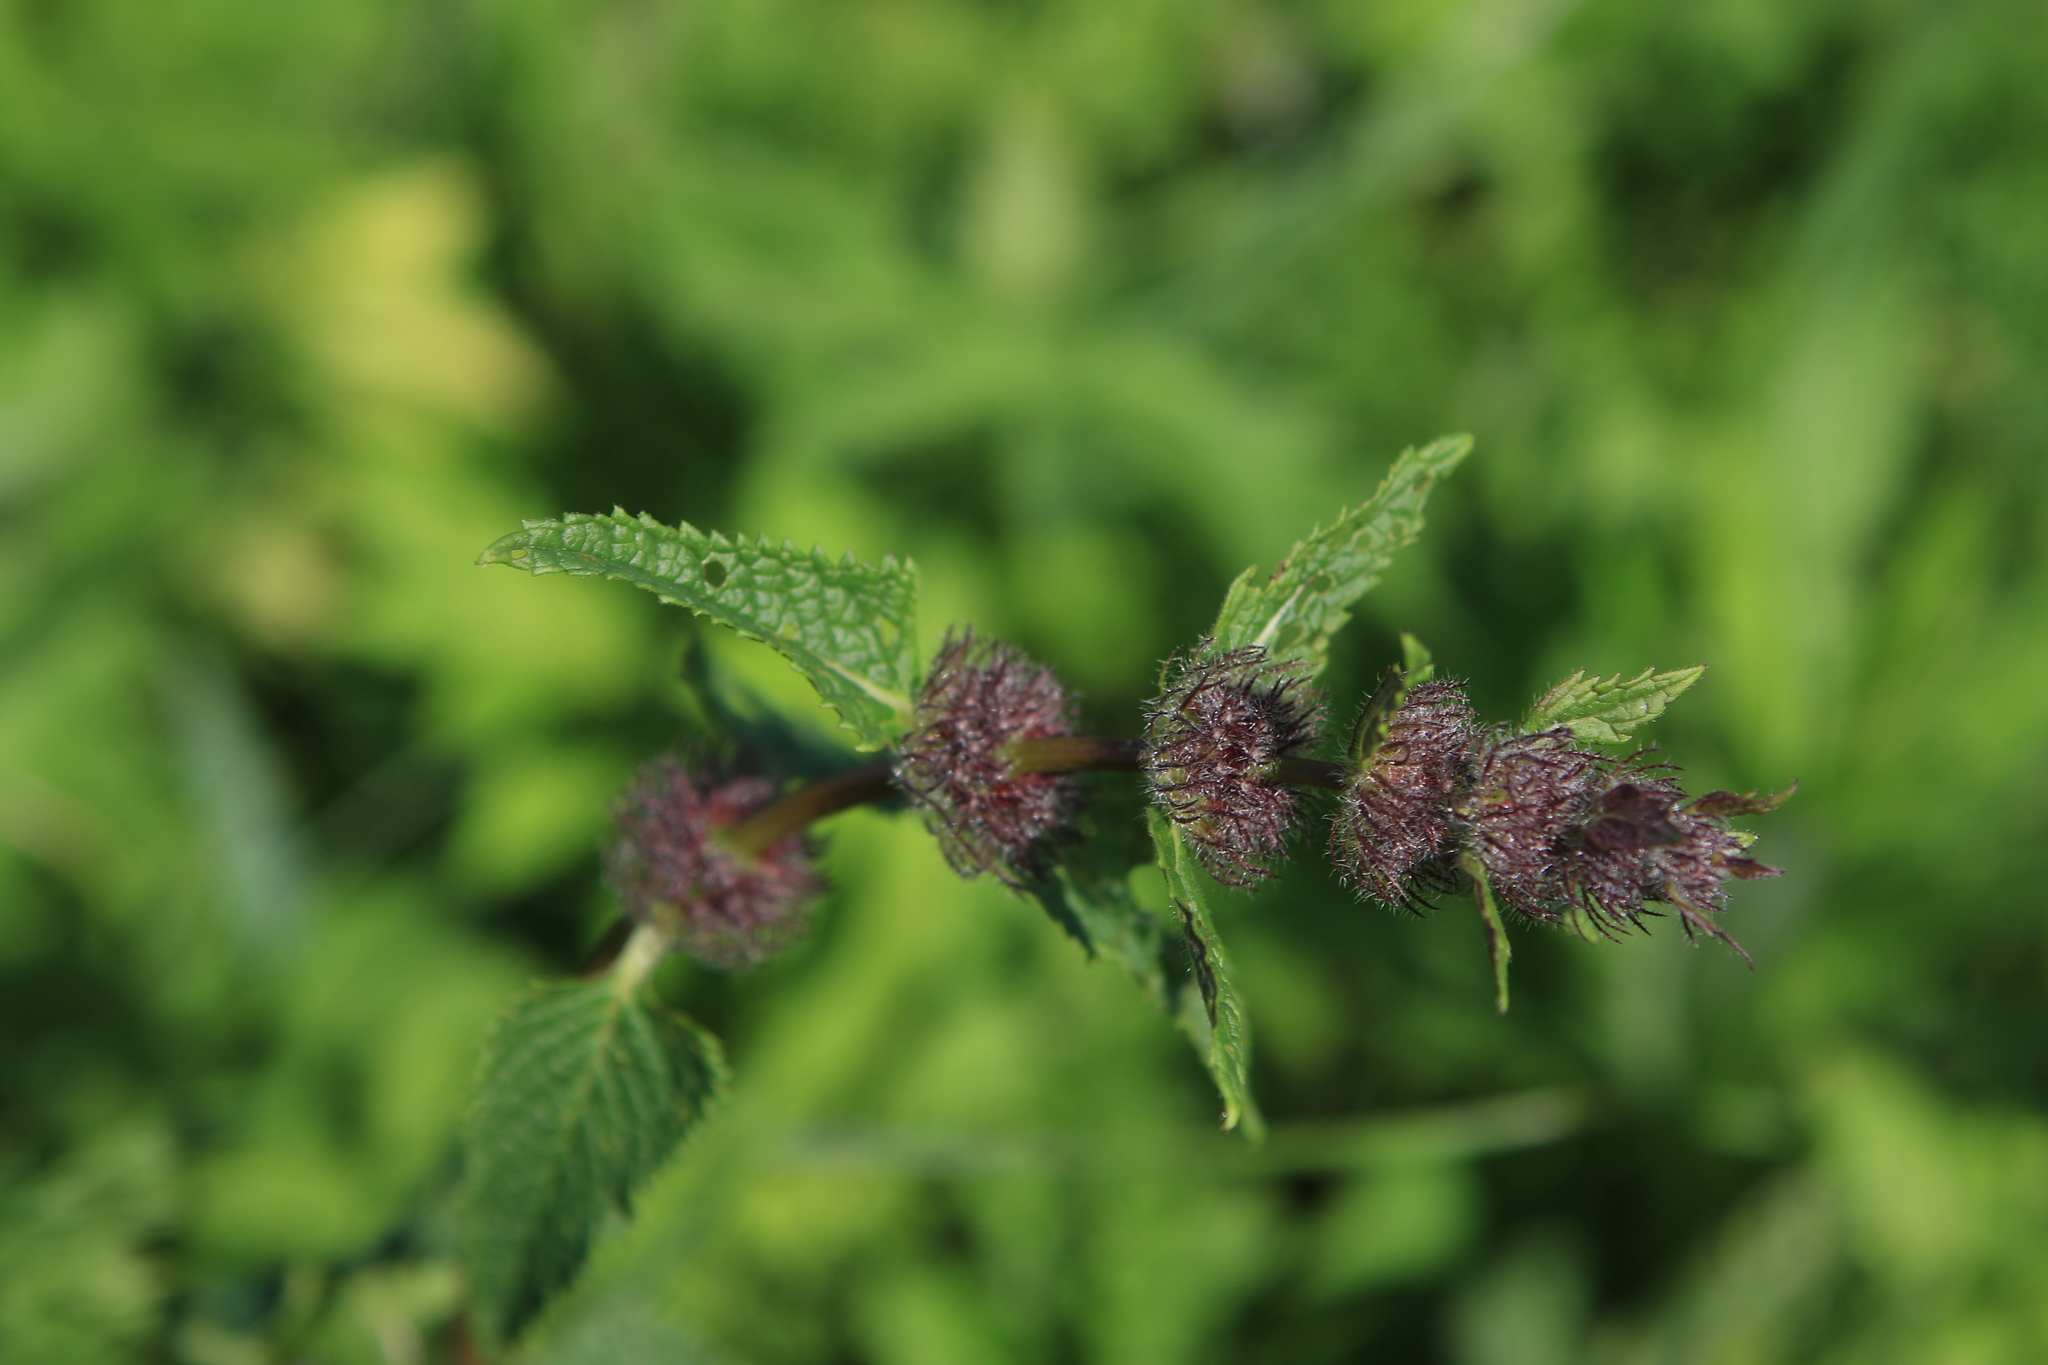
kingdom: Plantae
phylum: Tracheophyta
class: Magnoliopsida
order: Lamiales
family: Lamiaceae
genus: Phlomoides
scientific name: Phlomoides tuberosa
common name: Tuberous jerusalem sage
